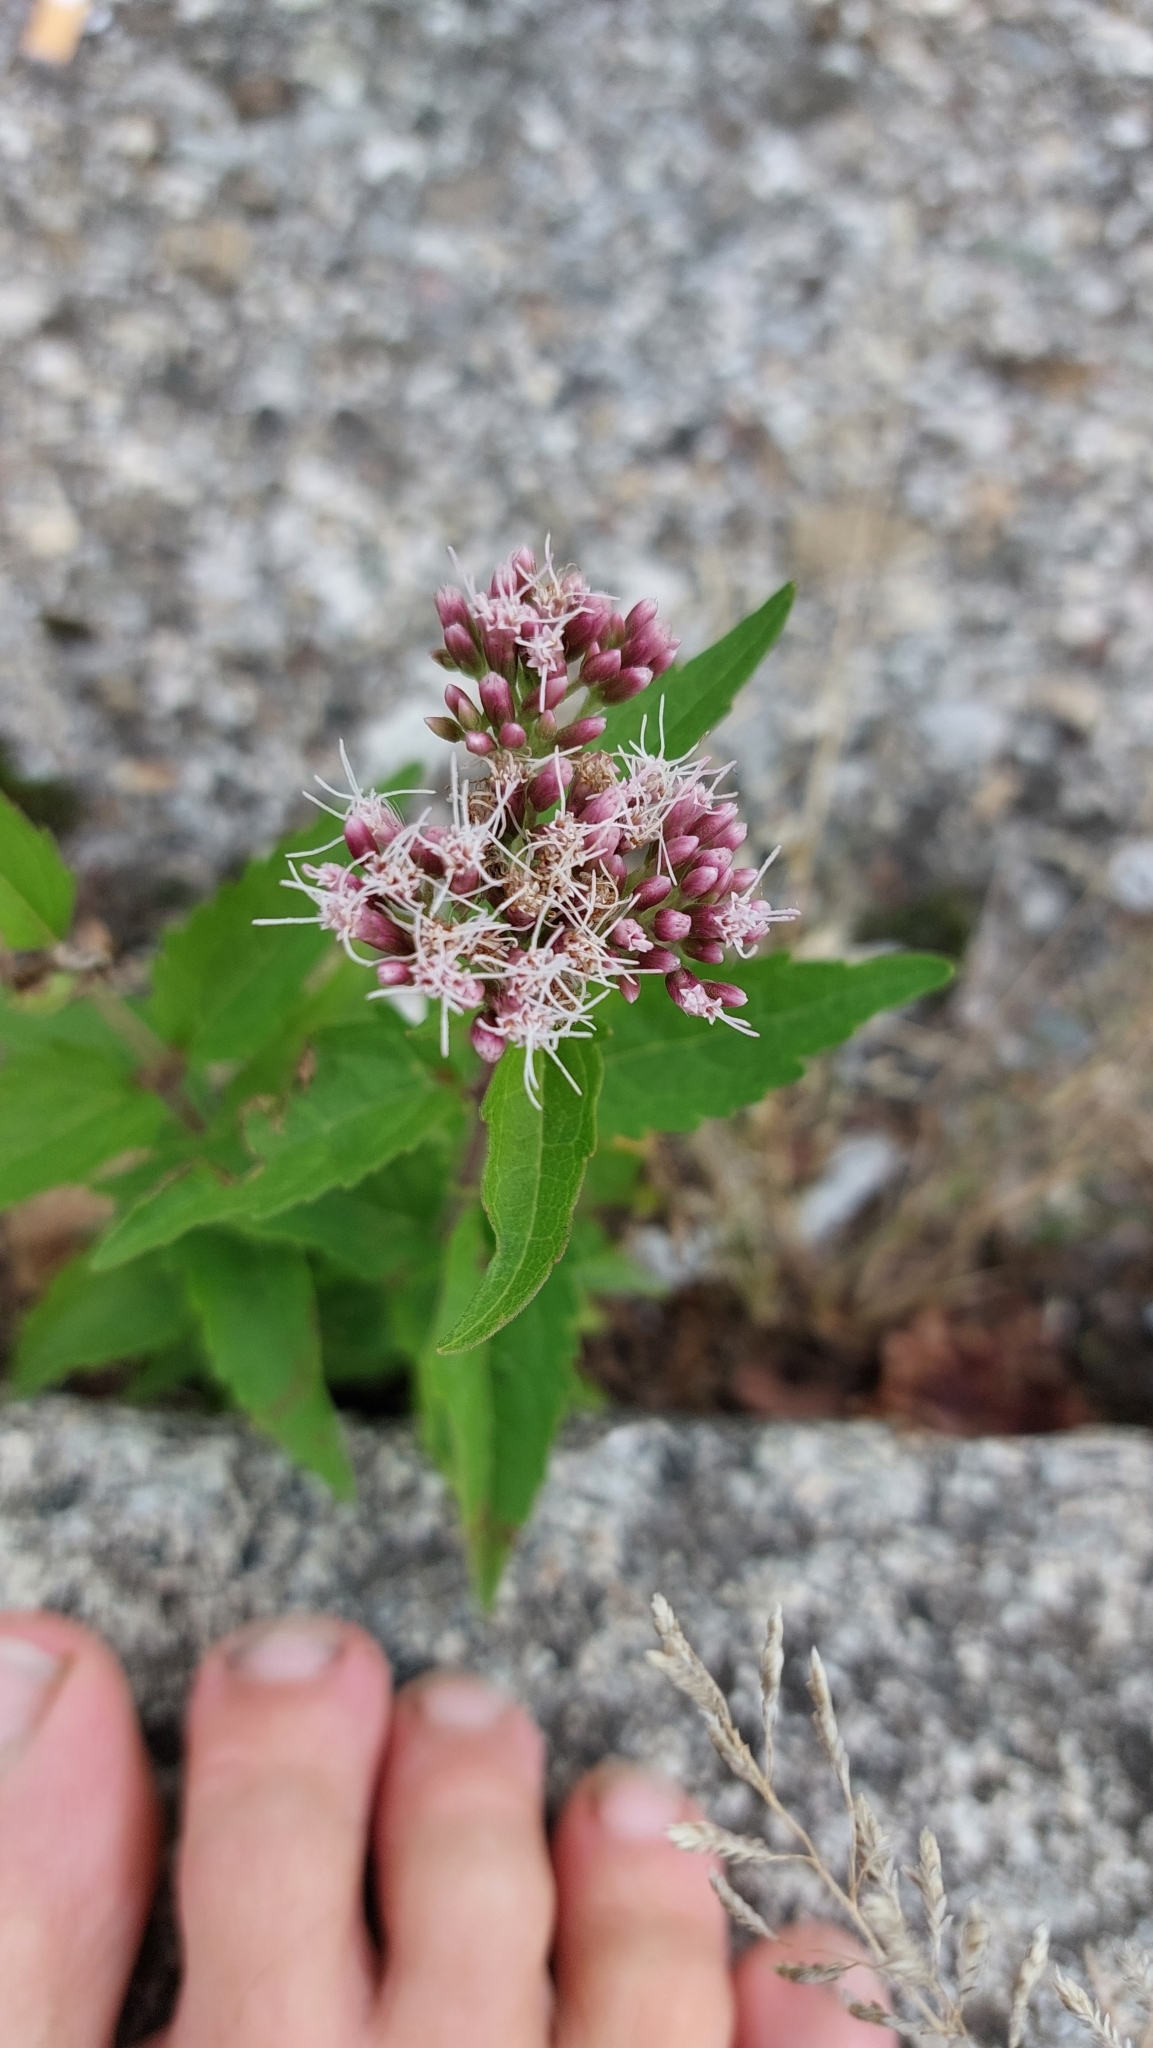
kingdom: Plantae
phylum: Tracheophyta
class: Magnoliopsida
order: Asterales
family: Asteraceae
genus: Eupatorium
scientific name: Eupatorium cannabinum
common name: Hemp-agrimony
